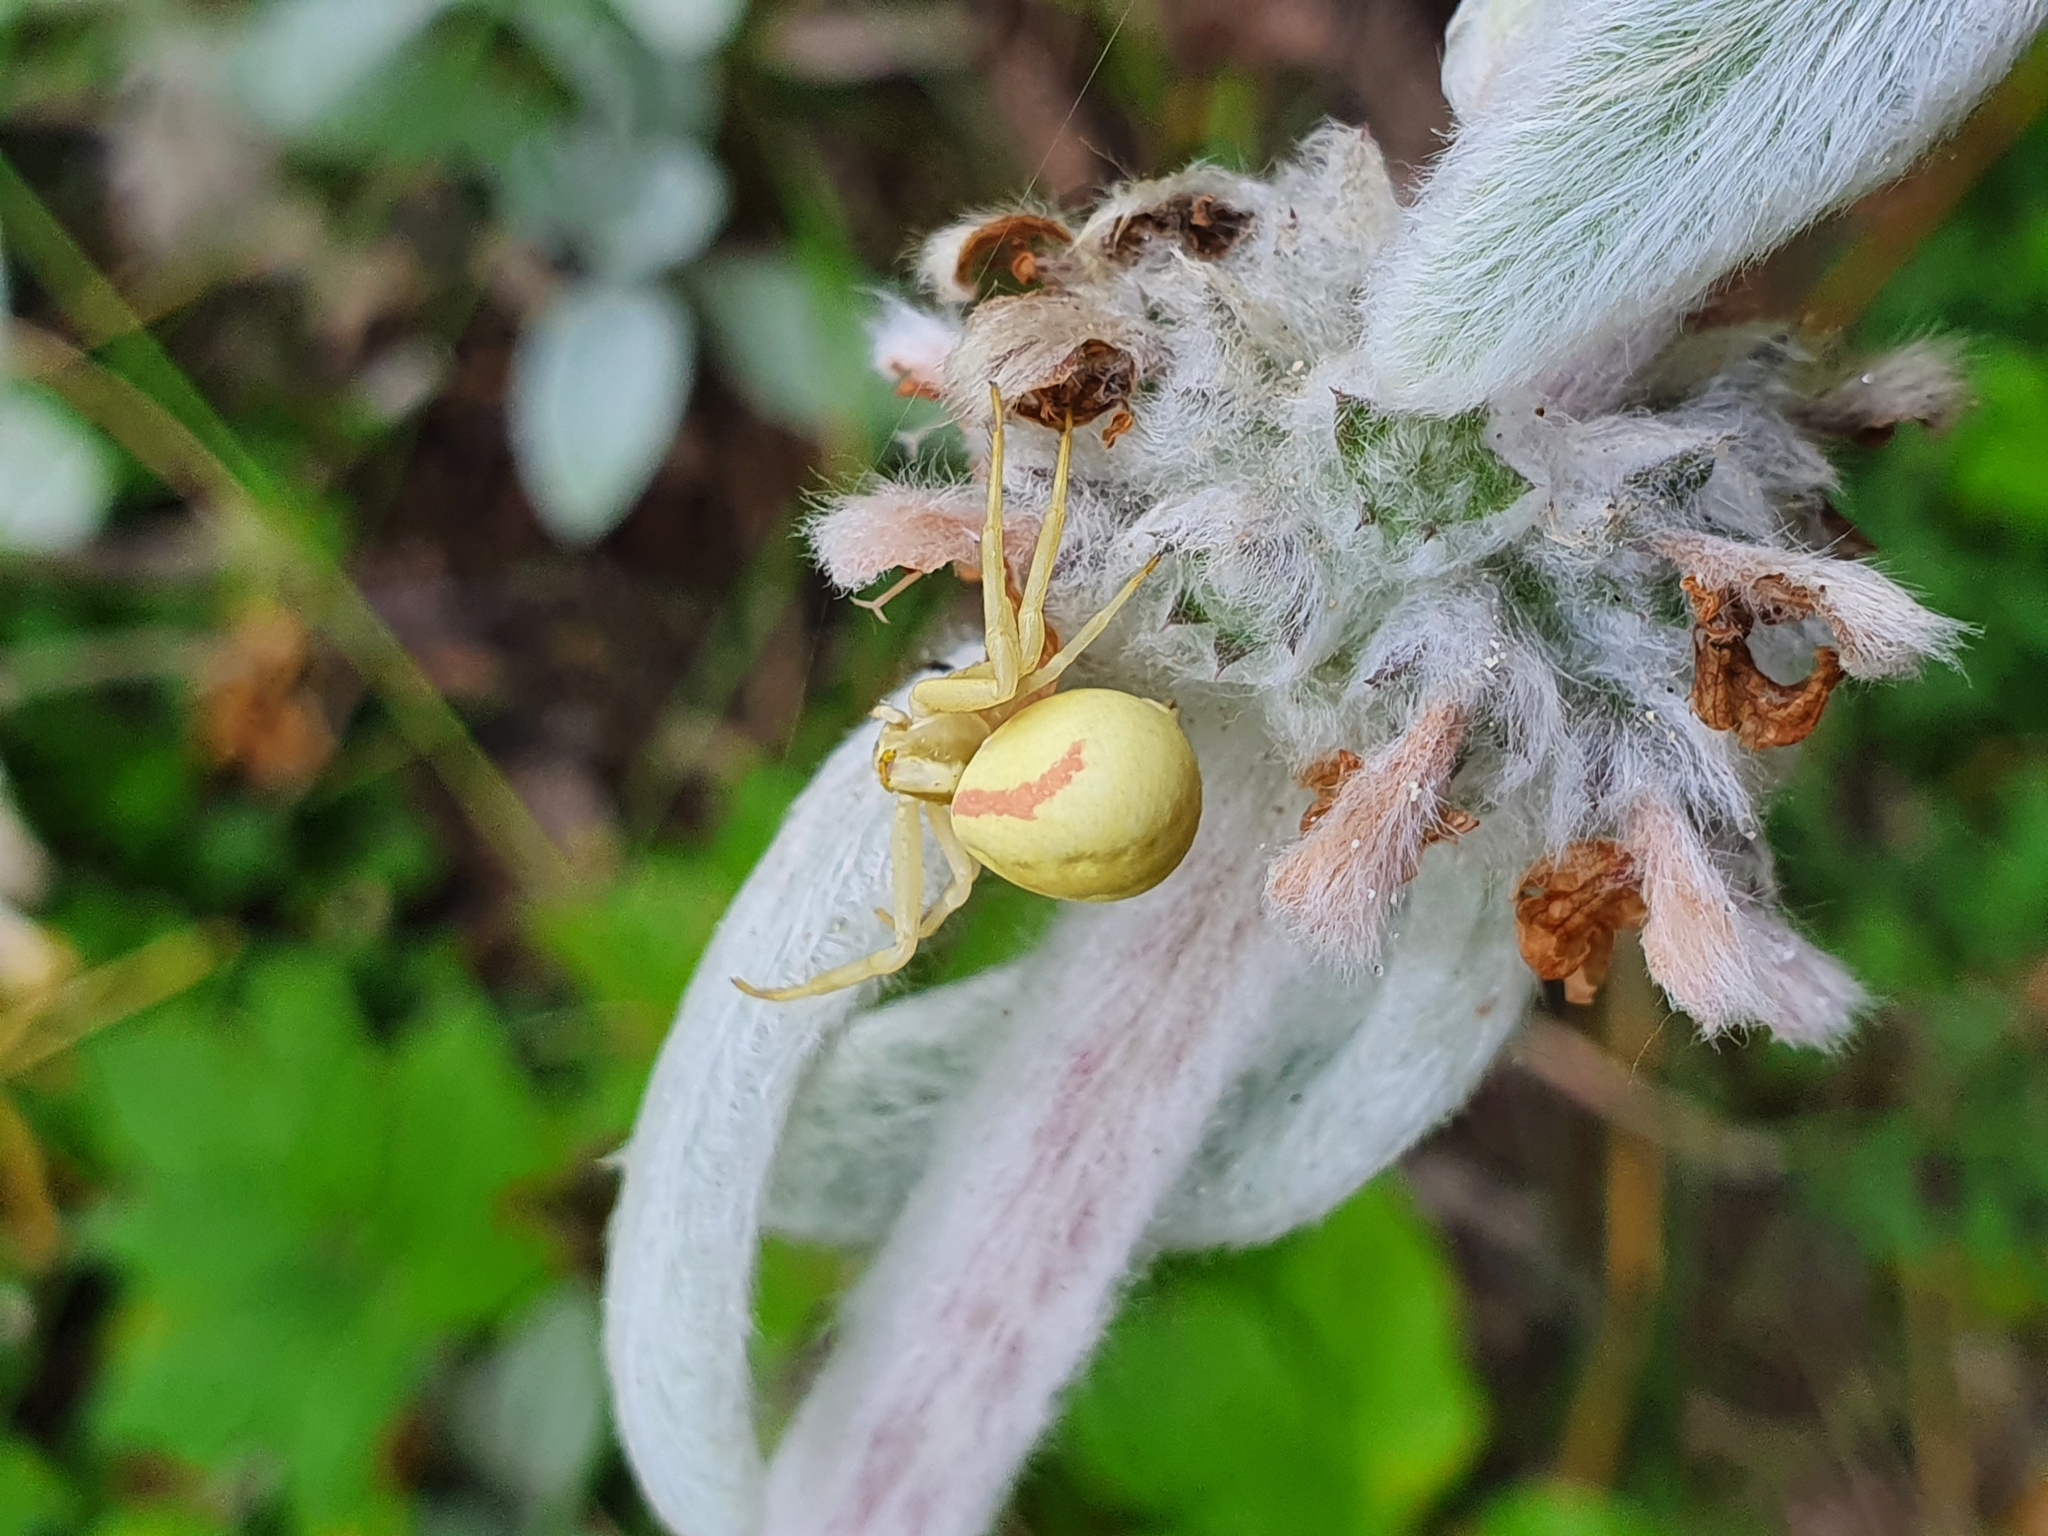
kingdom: Animalia
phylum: Arthropoda
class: Arachnida
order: Araneae
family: Thomisidae
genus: Misumena
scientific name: Misumena vatia
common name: Goldenrod crab spider
